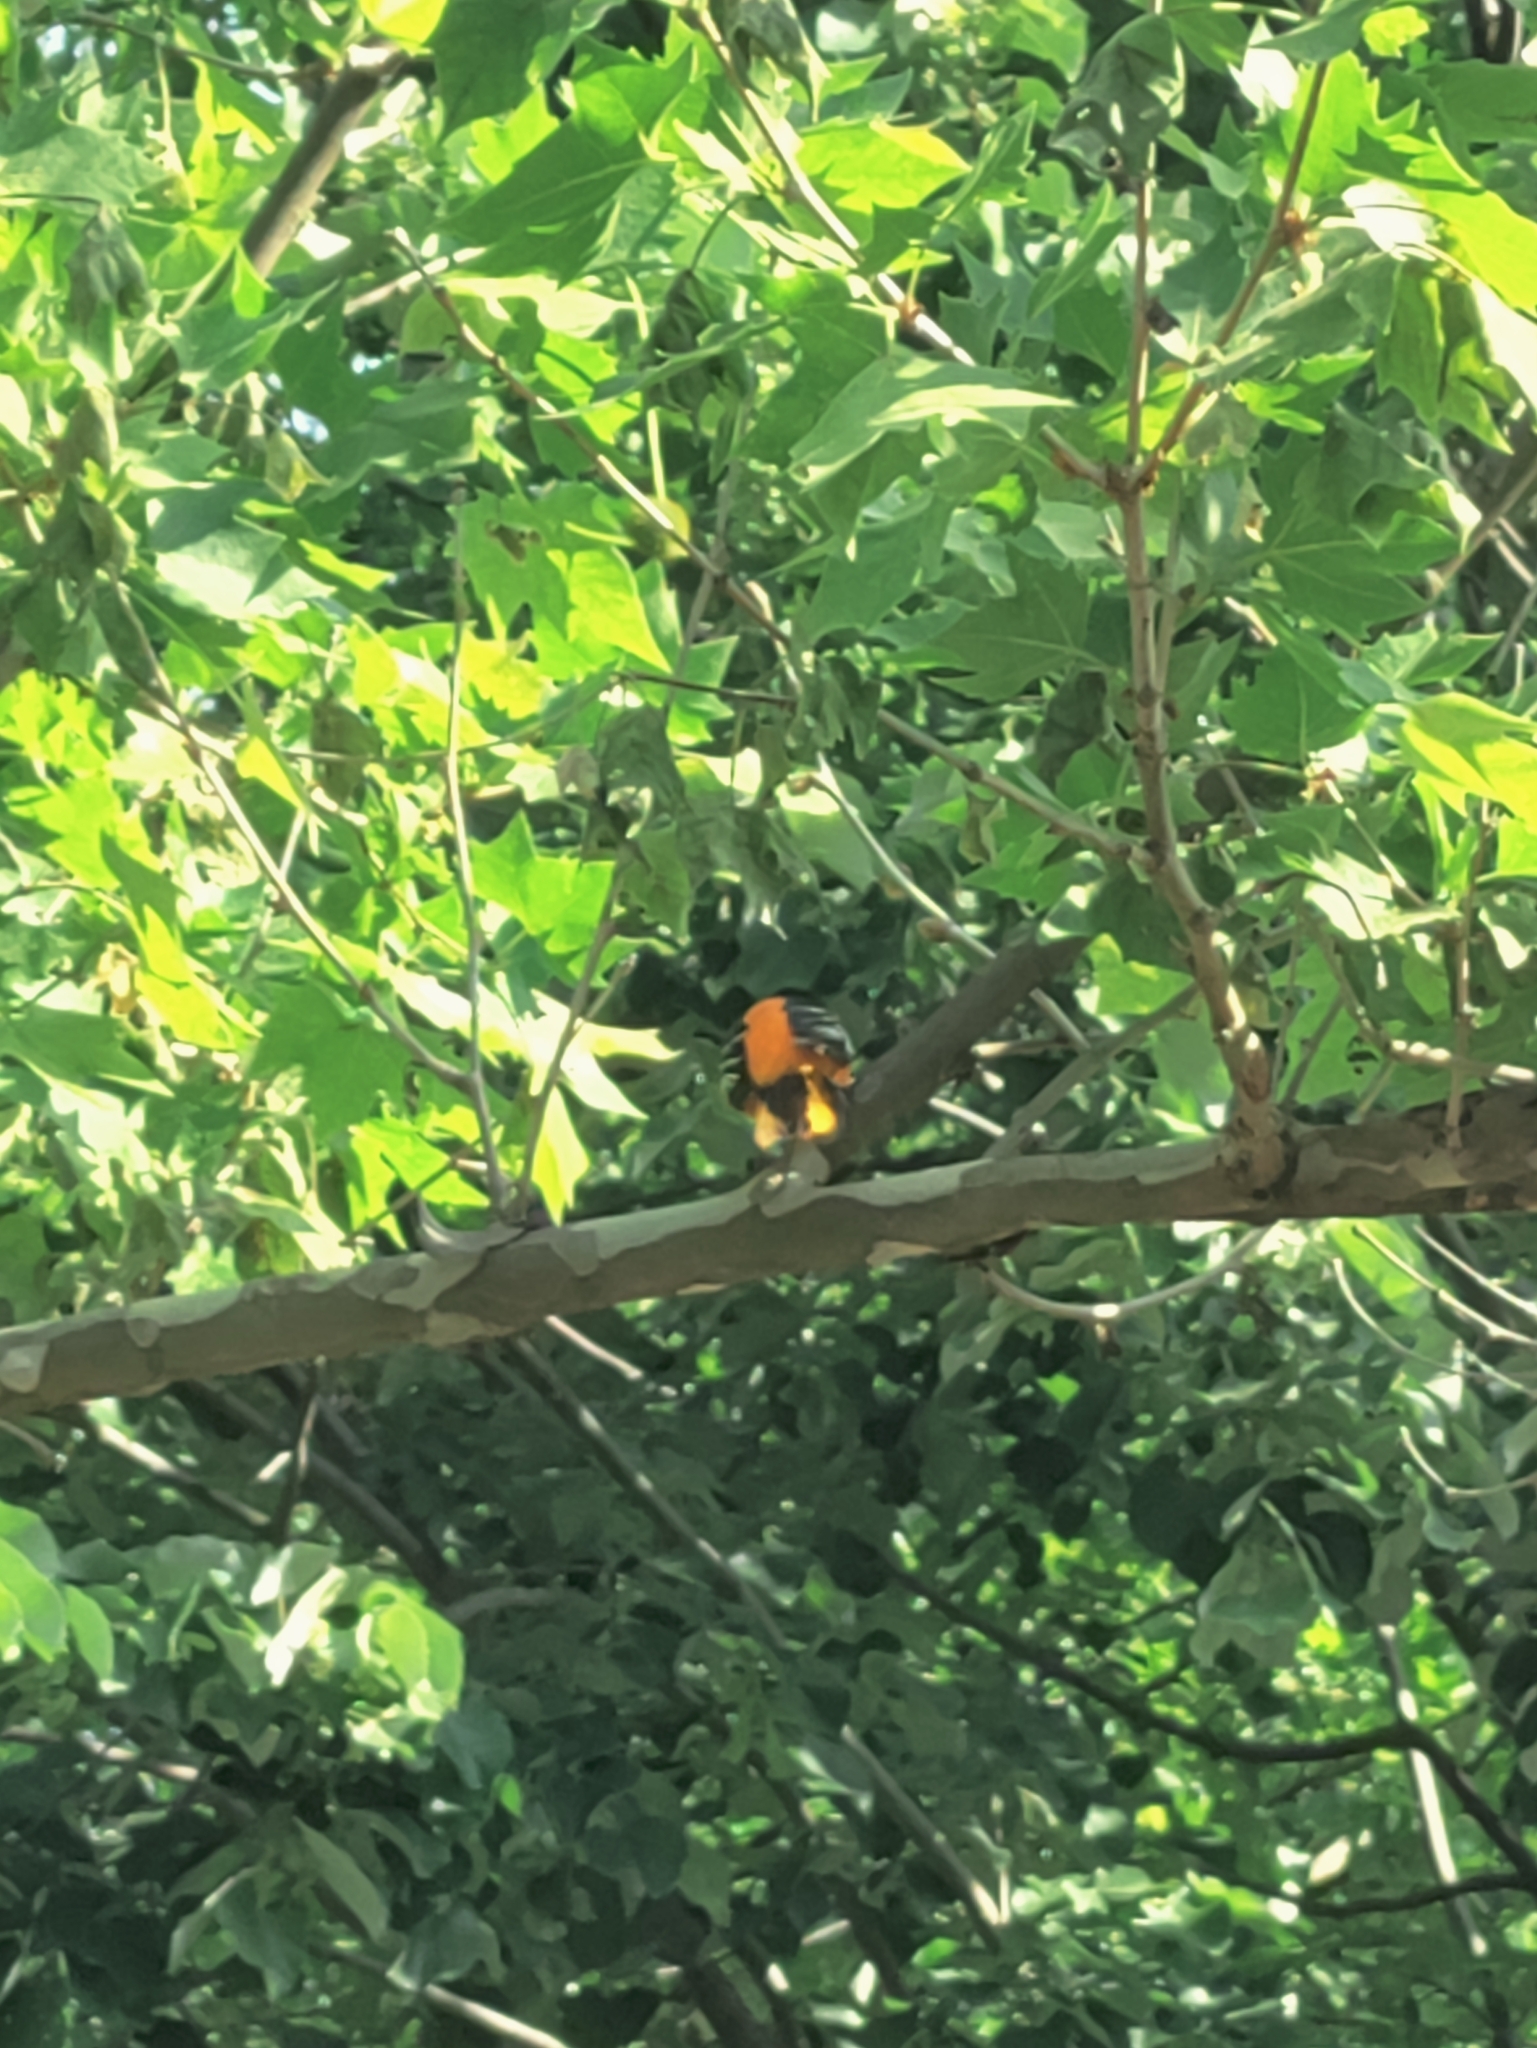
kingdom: Animalia
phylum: Chordata
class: Aves
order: Passeriformes
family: Icteridae
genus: Icterus
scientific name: Icterus galbula
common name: Baltimore oriole
